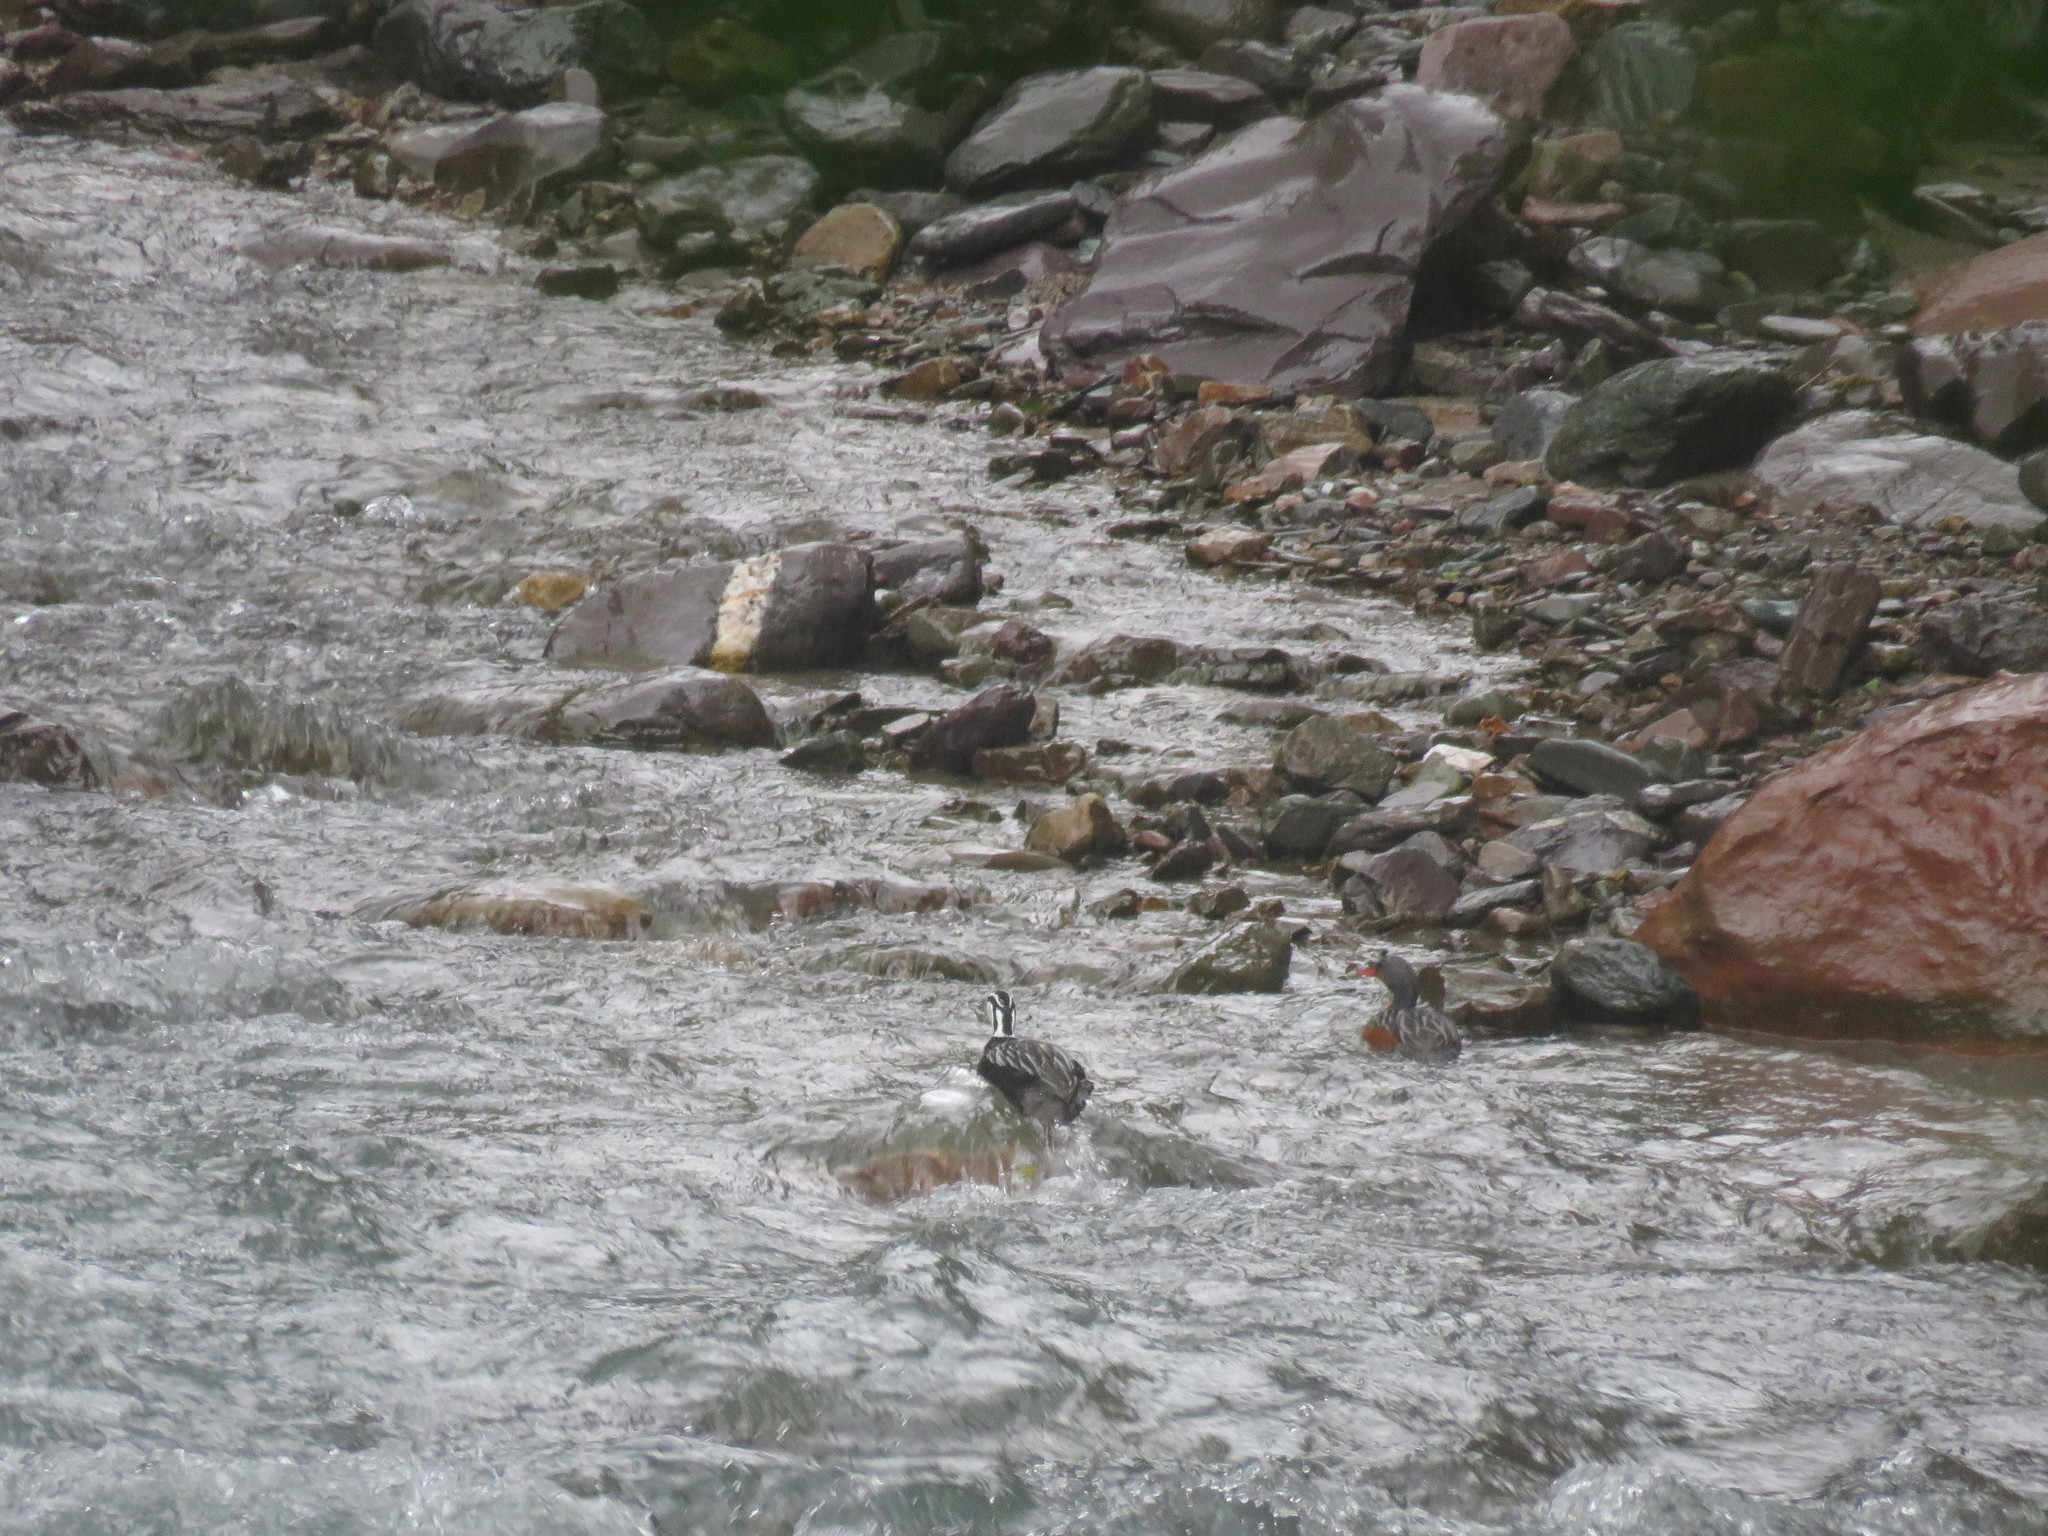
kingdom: Animalia
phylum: Chordata
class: Aves
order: Anseriformes
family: Anatidae
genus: Merganetta
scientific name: Merganetta armata
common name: Torrent duck
